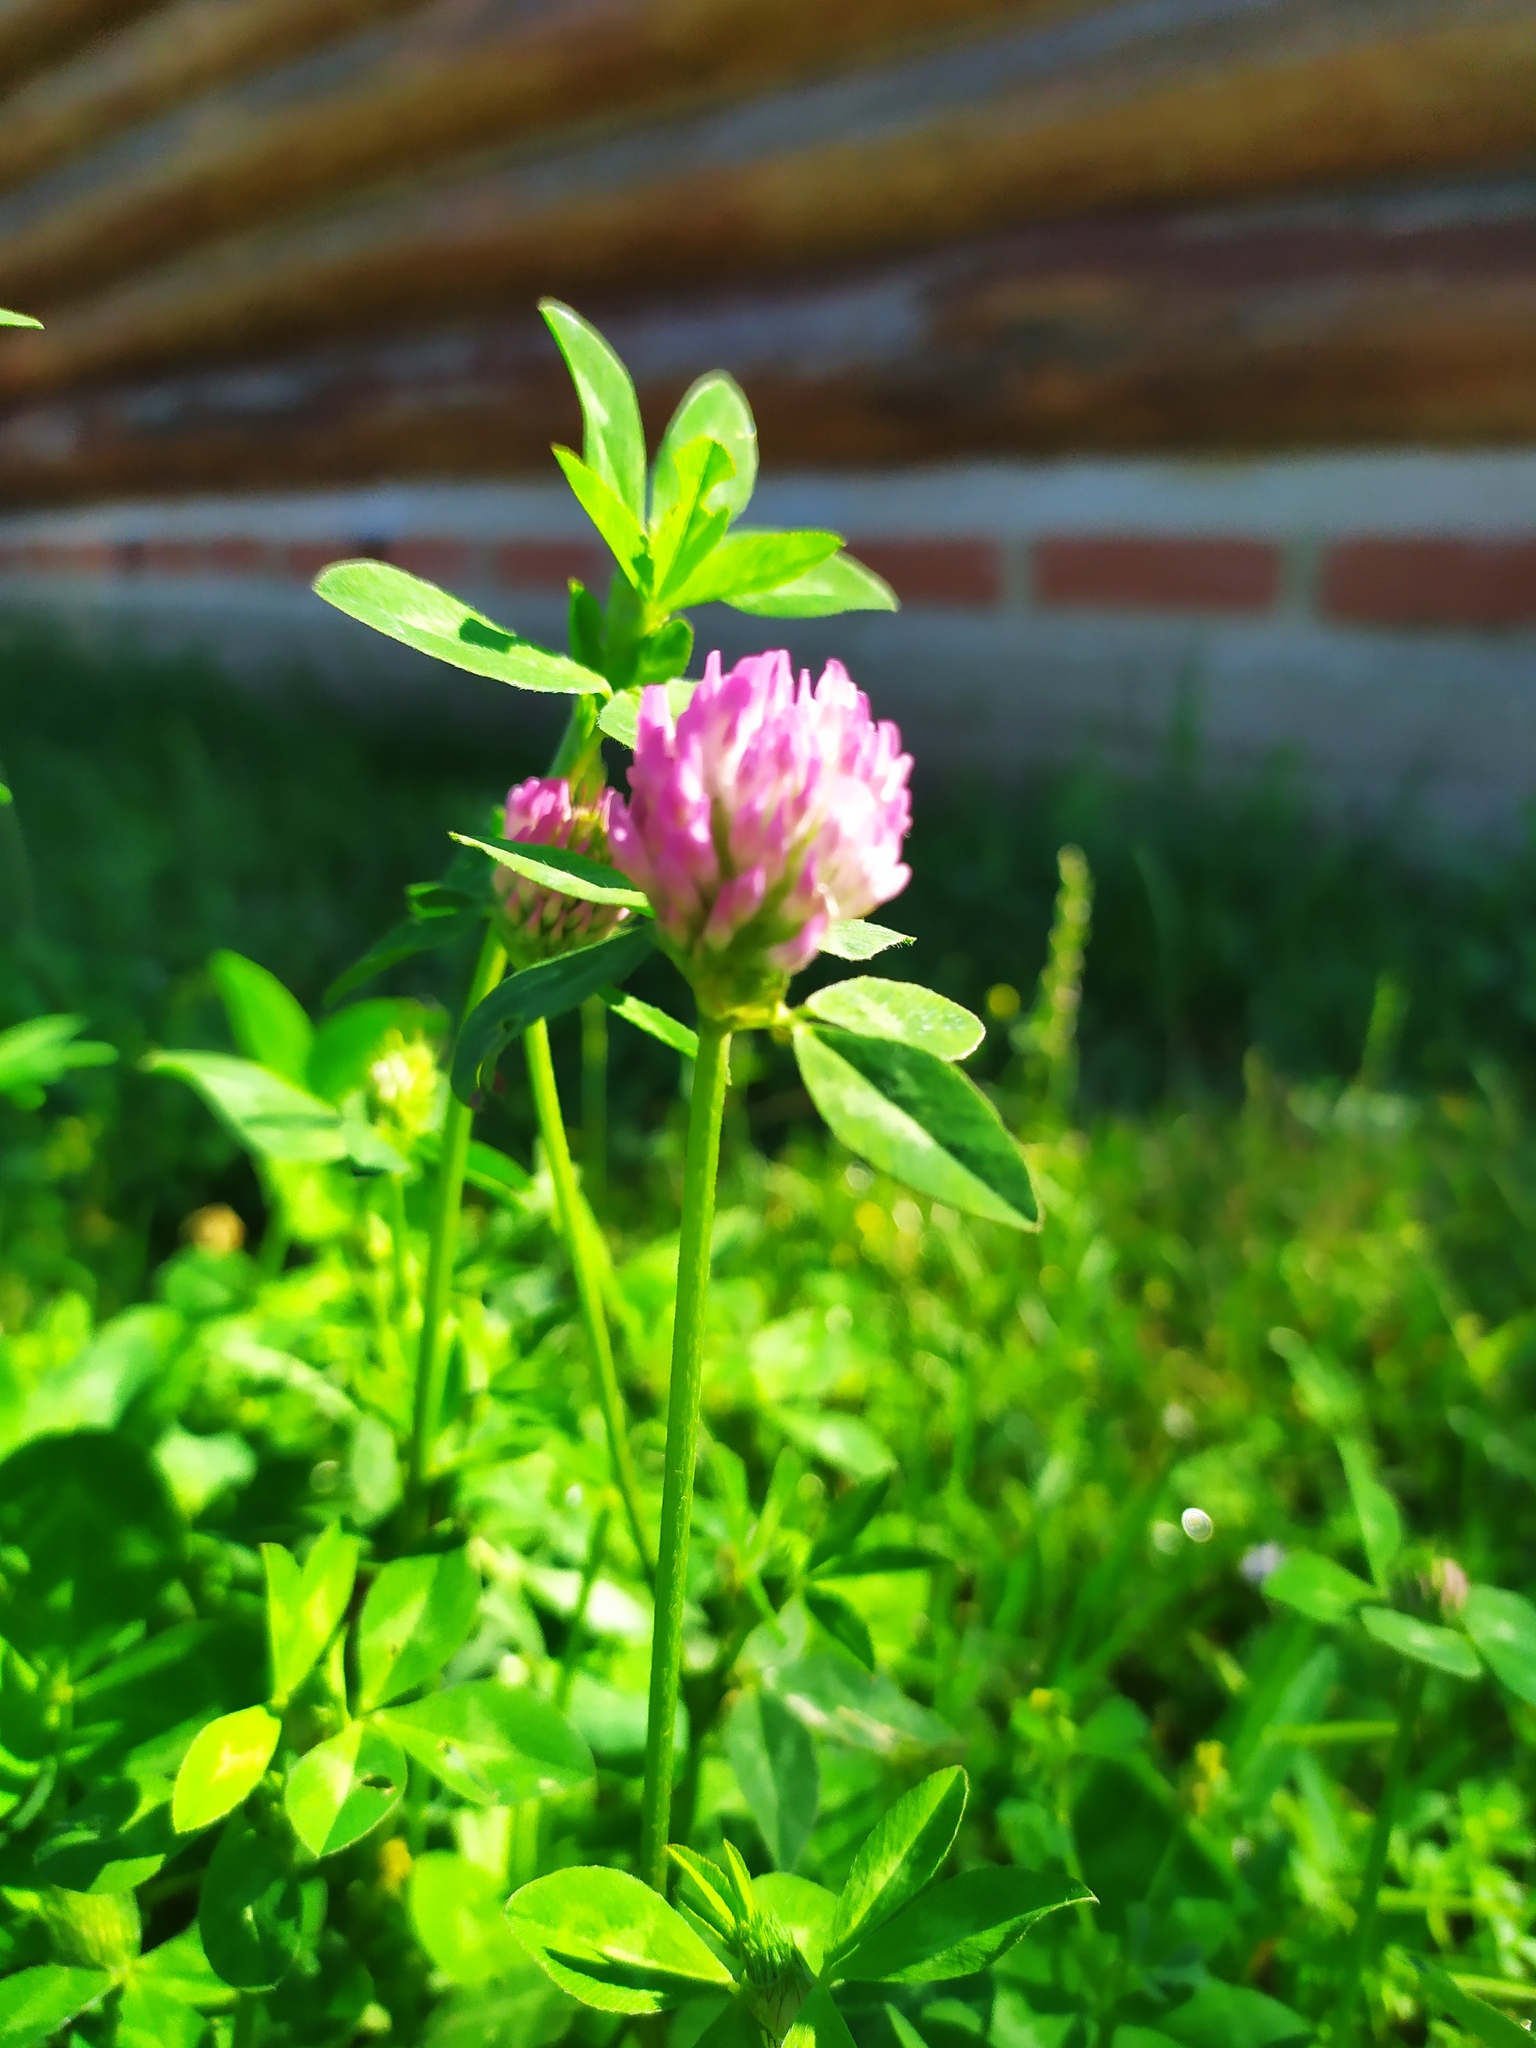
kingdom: Plantae
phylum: Tracheophyta
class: Magnoliopsida
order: Fabales
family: Fabaceae
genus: Trifolium
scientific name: Trifolium pratense
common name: Red clover
